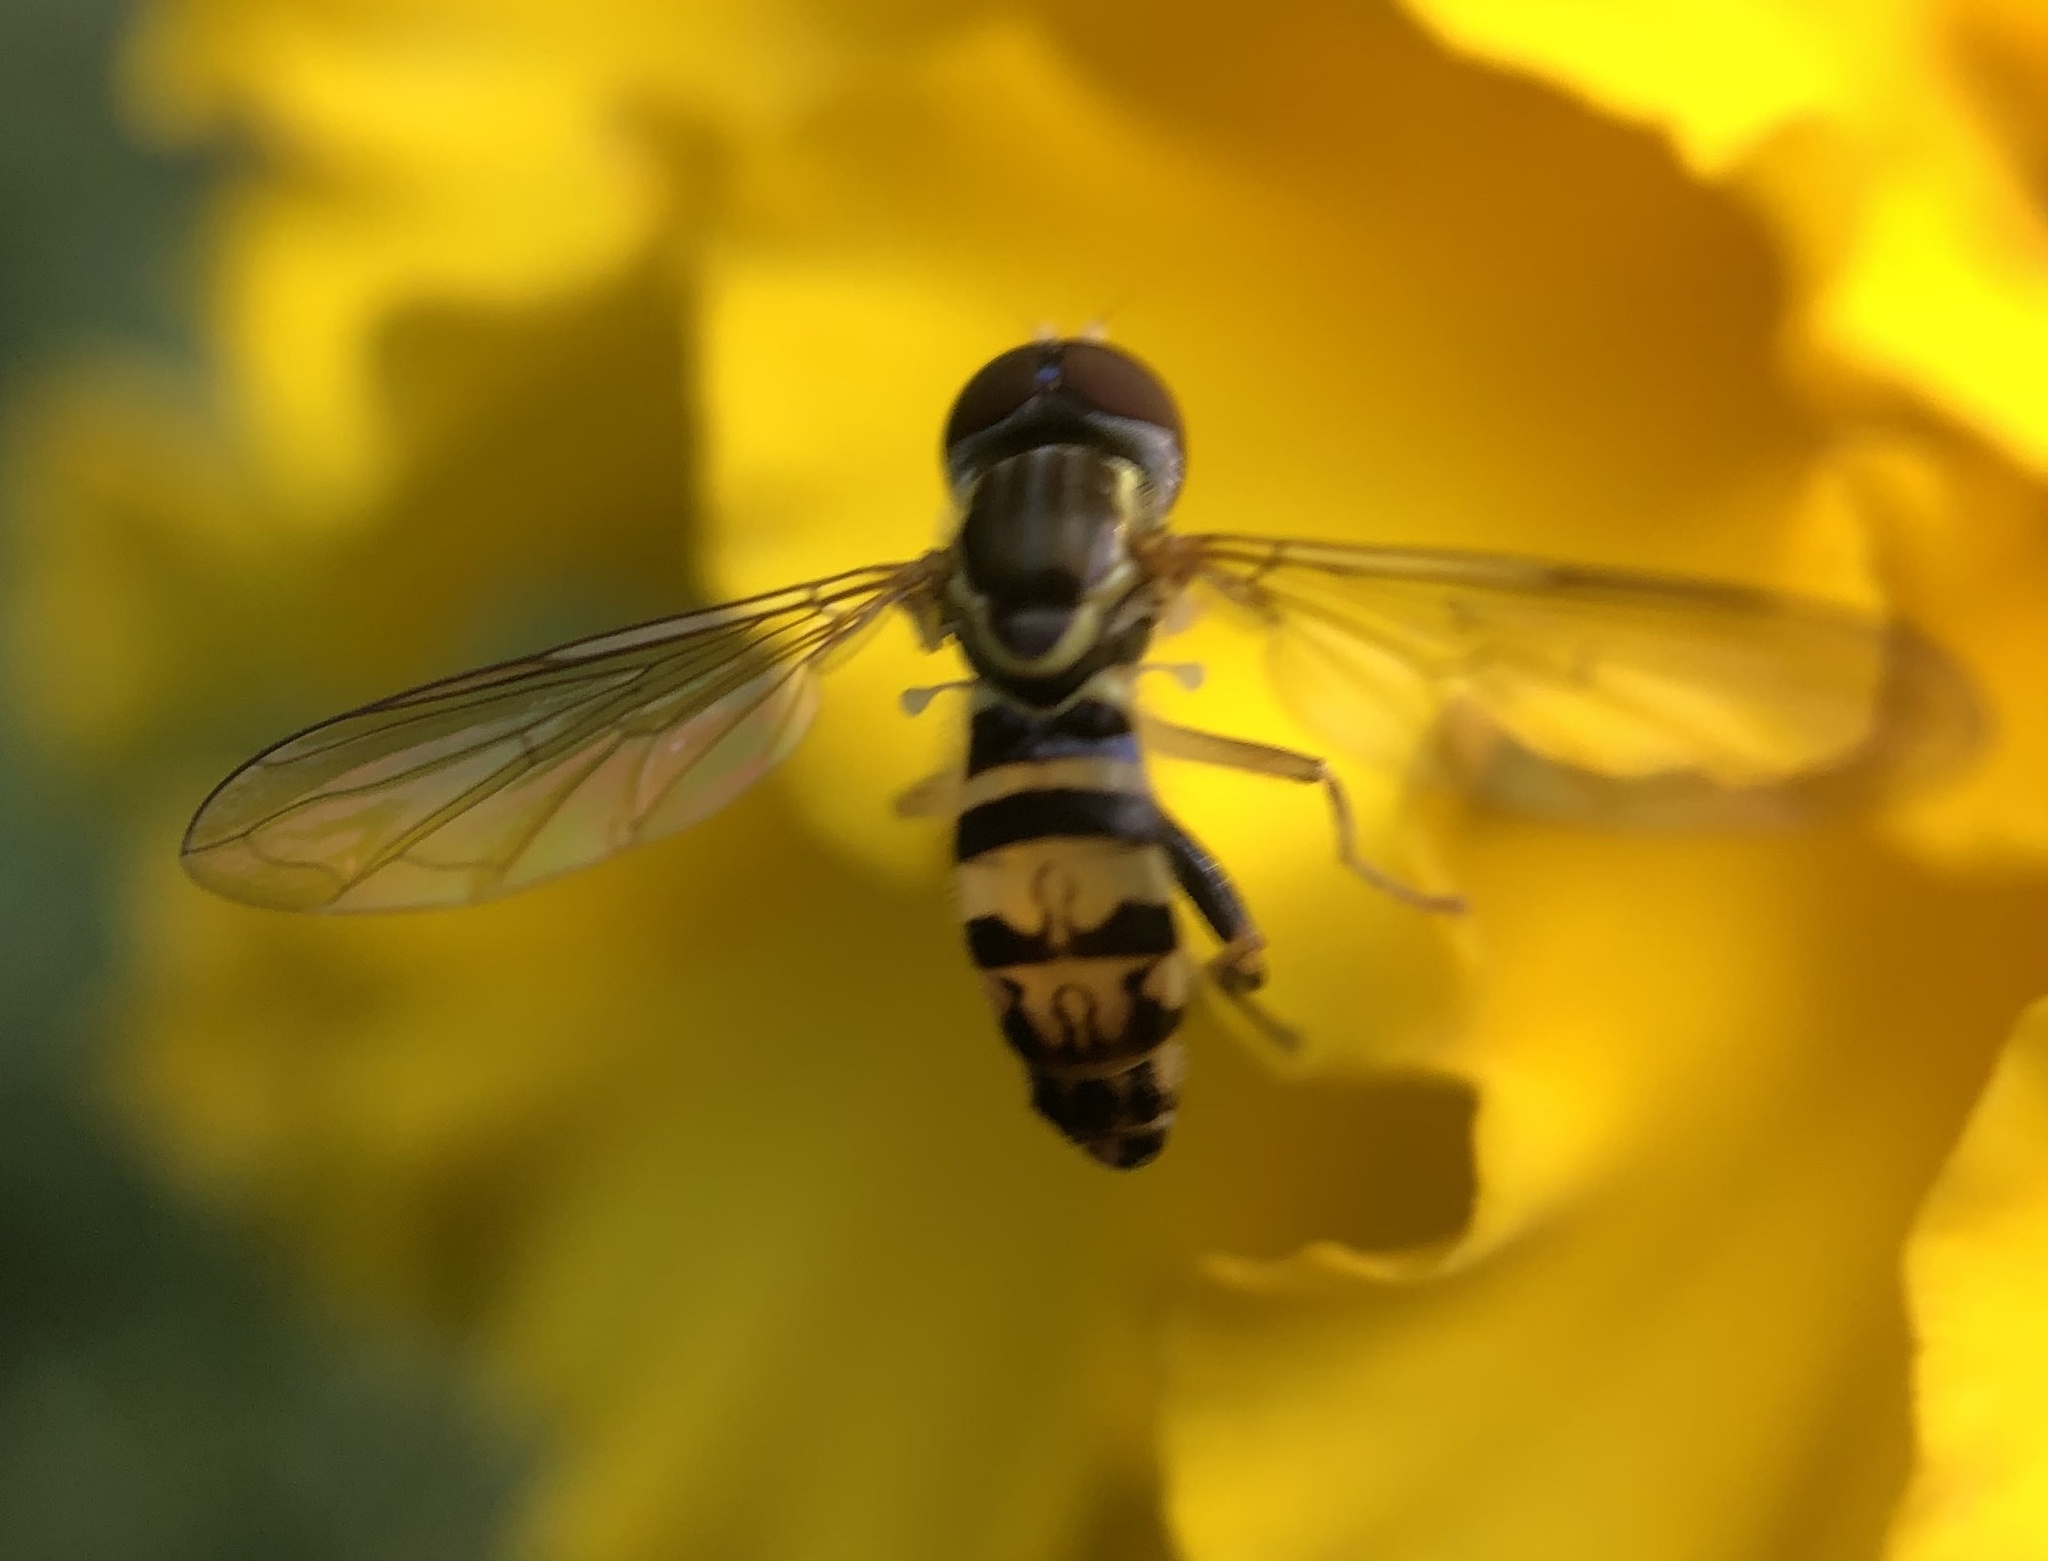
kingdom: Animalia
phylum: Arthropoda
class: Insecta
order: Diptera
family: Syrphidae
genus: Toxomerus
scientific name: Toxomerus geminatus
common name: Eastern calligrapher
